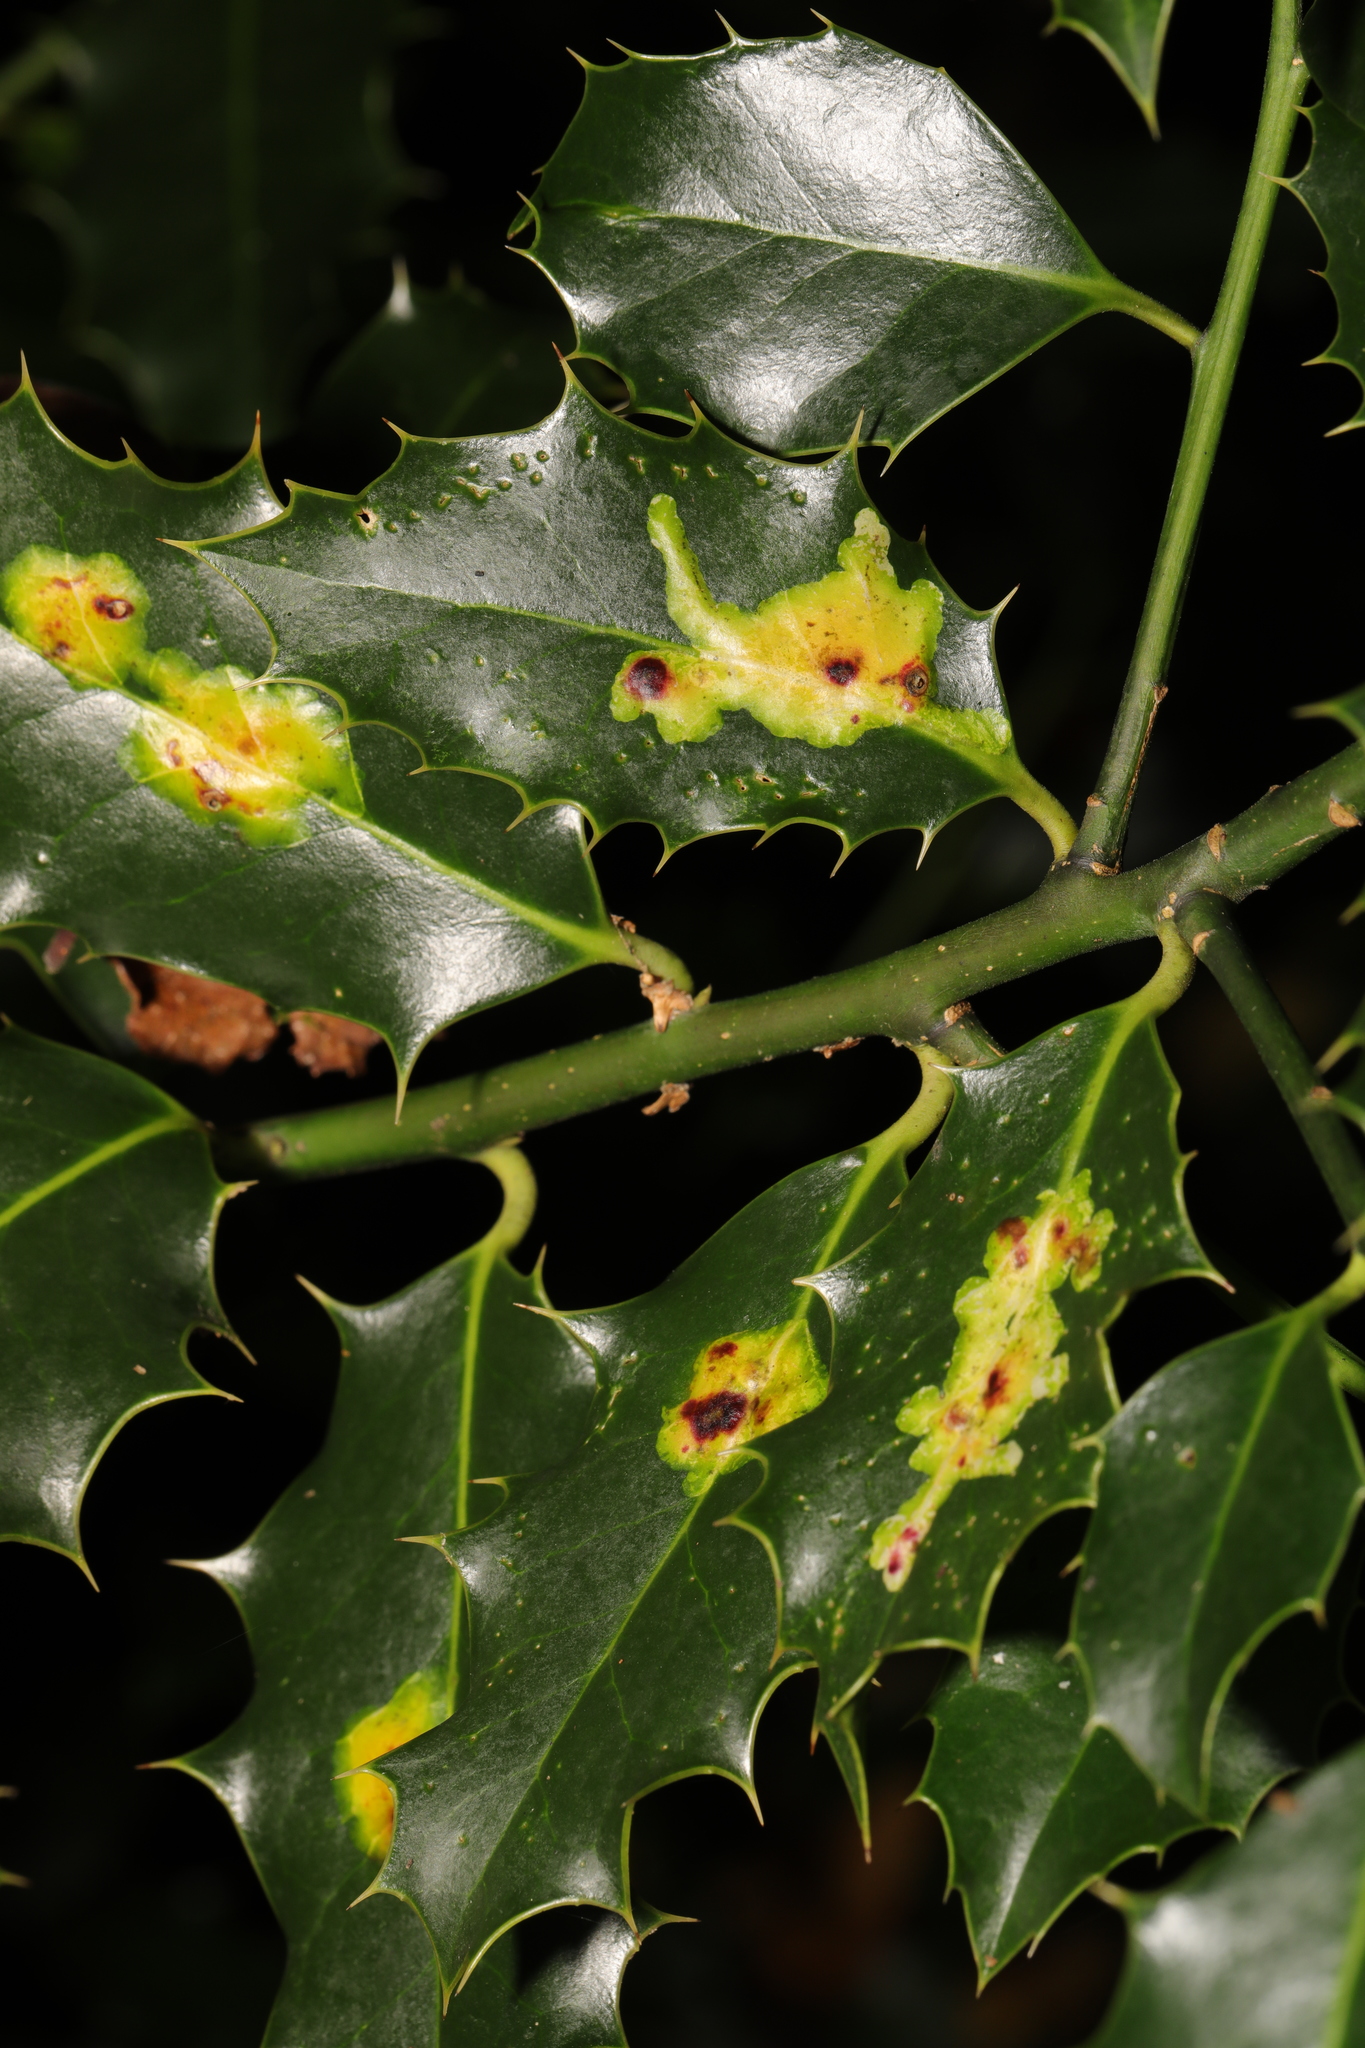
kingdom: Animalia
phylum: Arthropoda
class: Insecta
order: Diptera
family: Agromyzidae
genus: Phytomyza
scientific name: Phytomyza ilicis
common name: Holly leafminer
